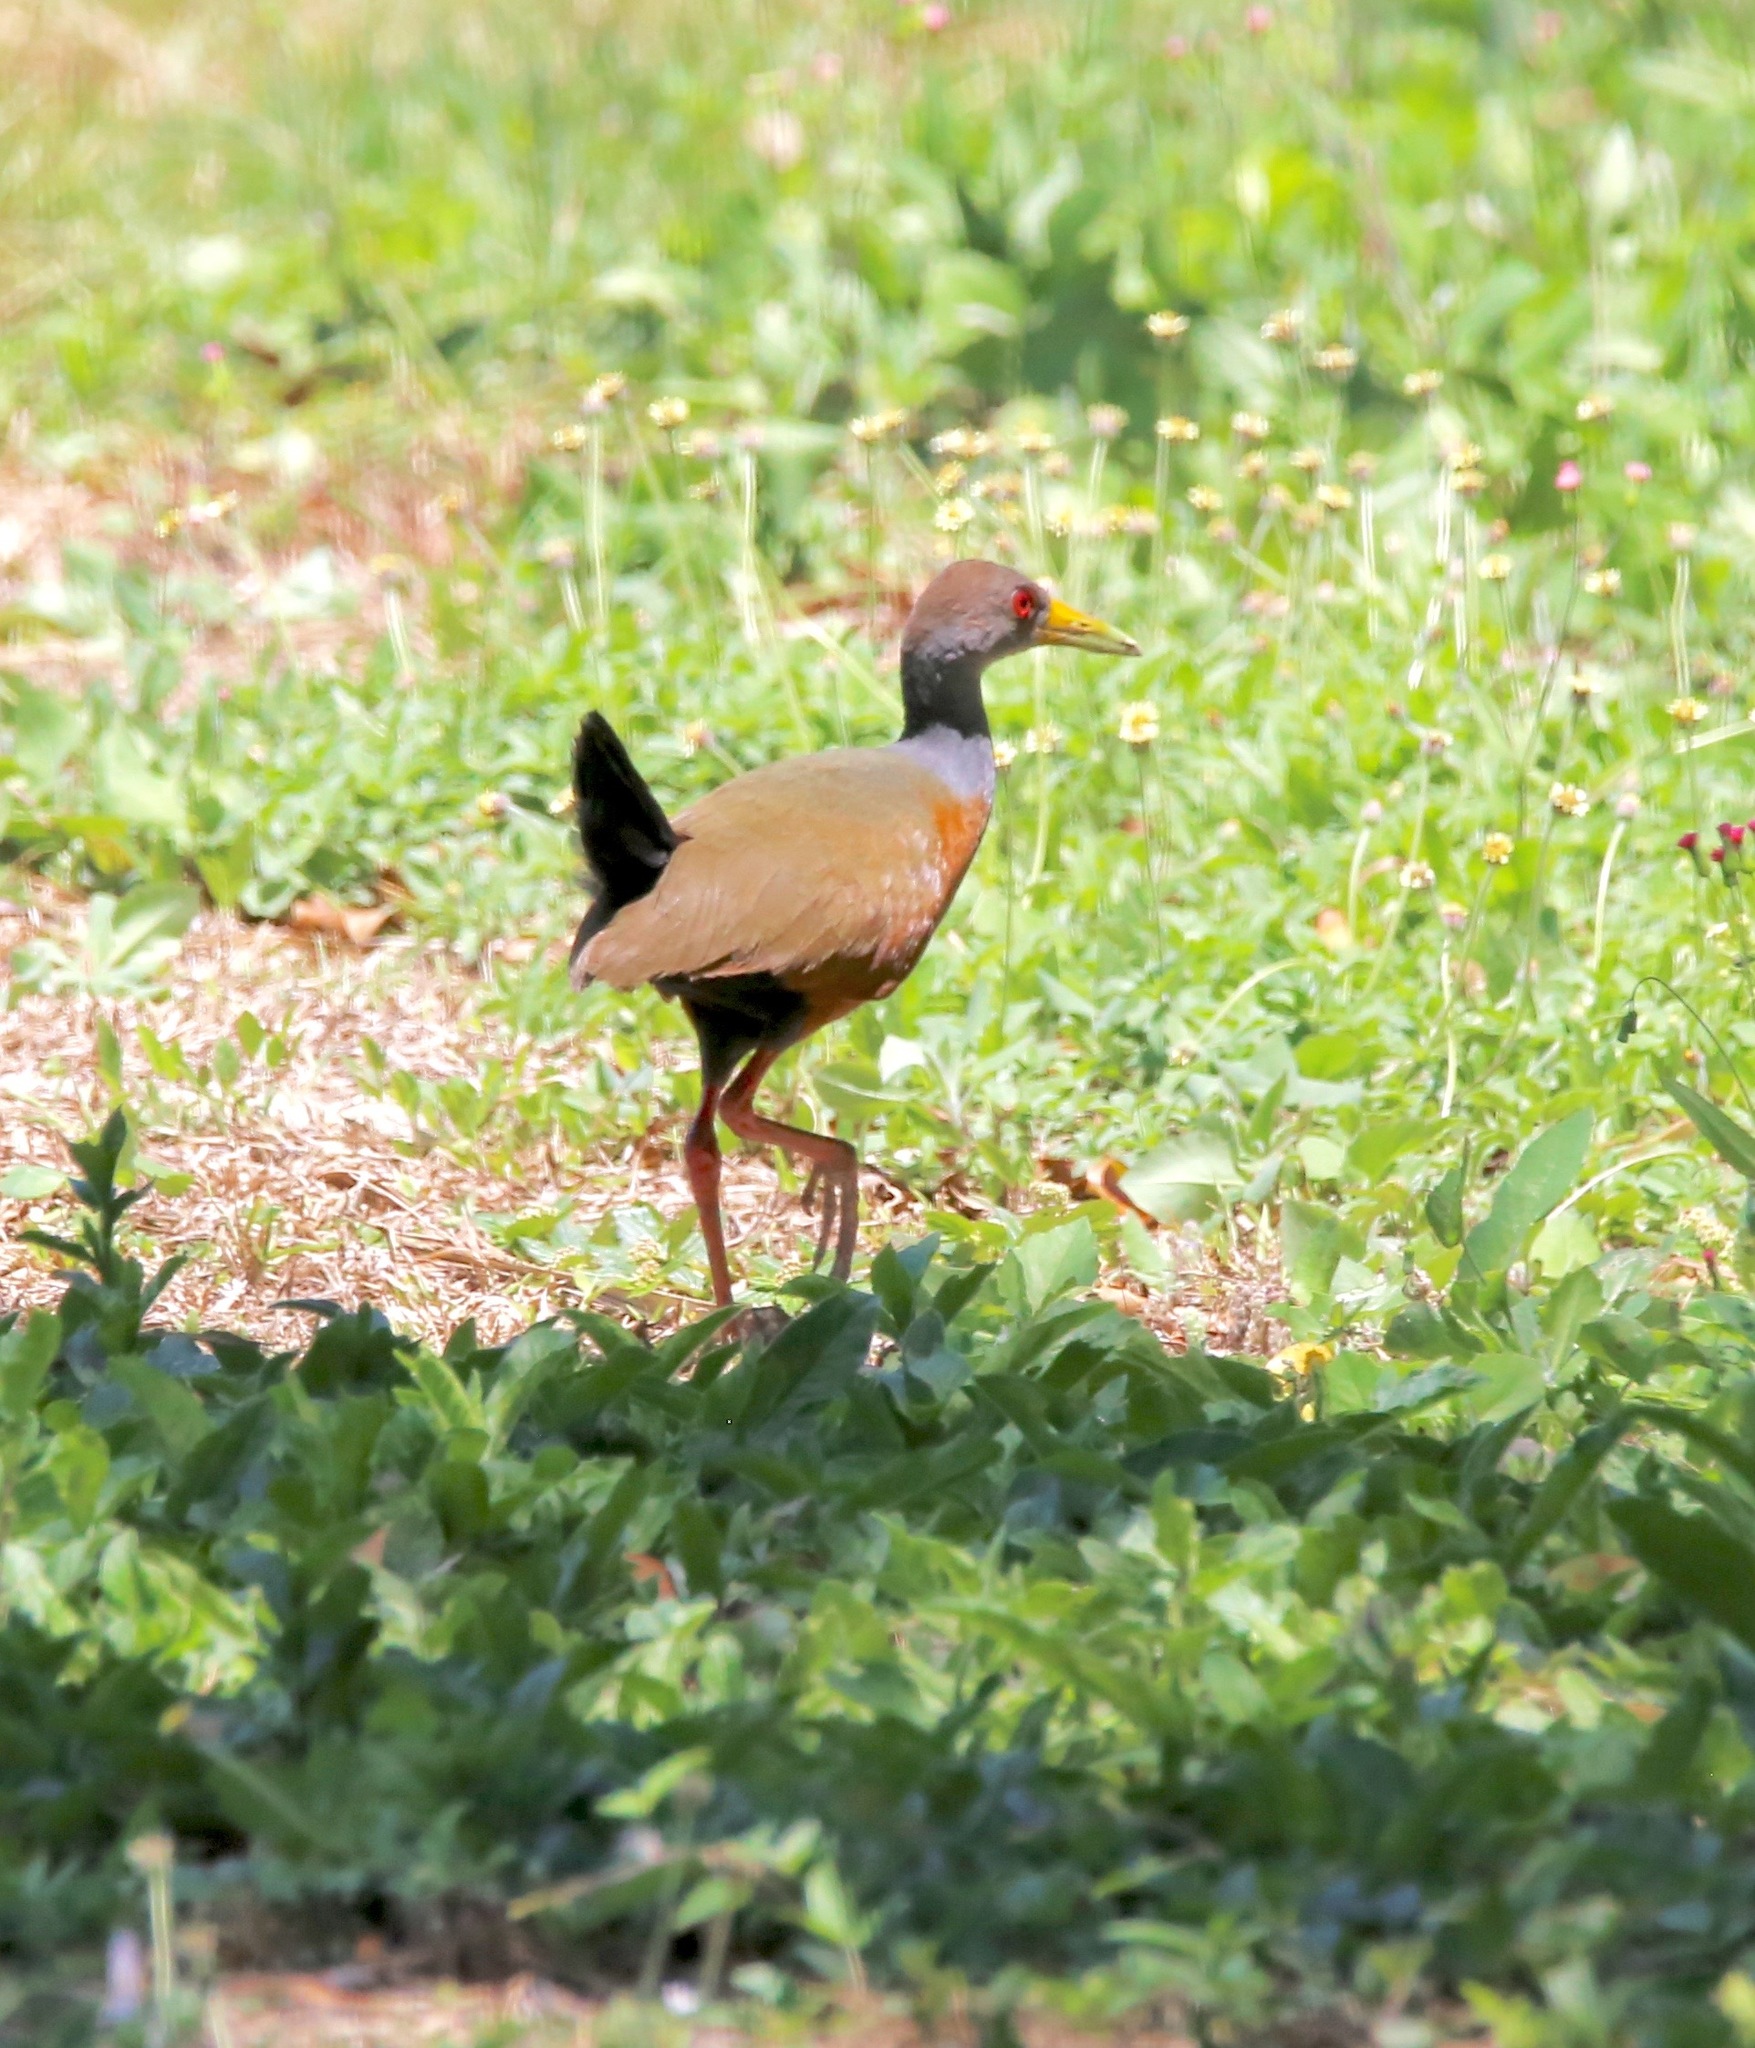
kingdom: Animalia
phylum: Chordata
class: Aves
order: Gruiformes
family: Rallidae
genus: Aramides
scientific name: Aramides cajanea
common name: Gray-necked wood-rail
